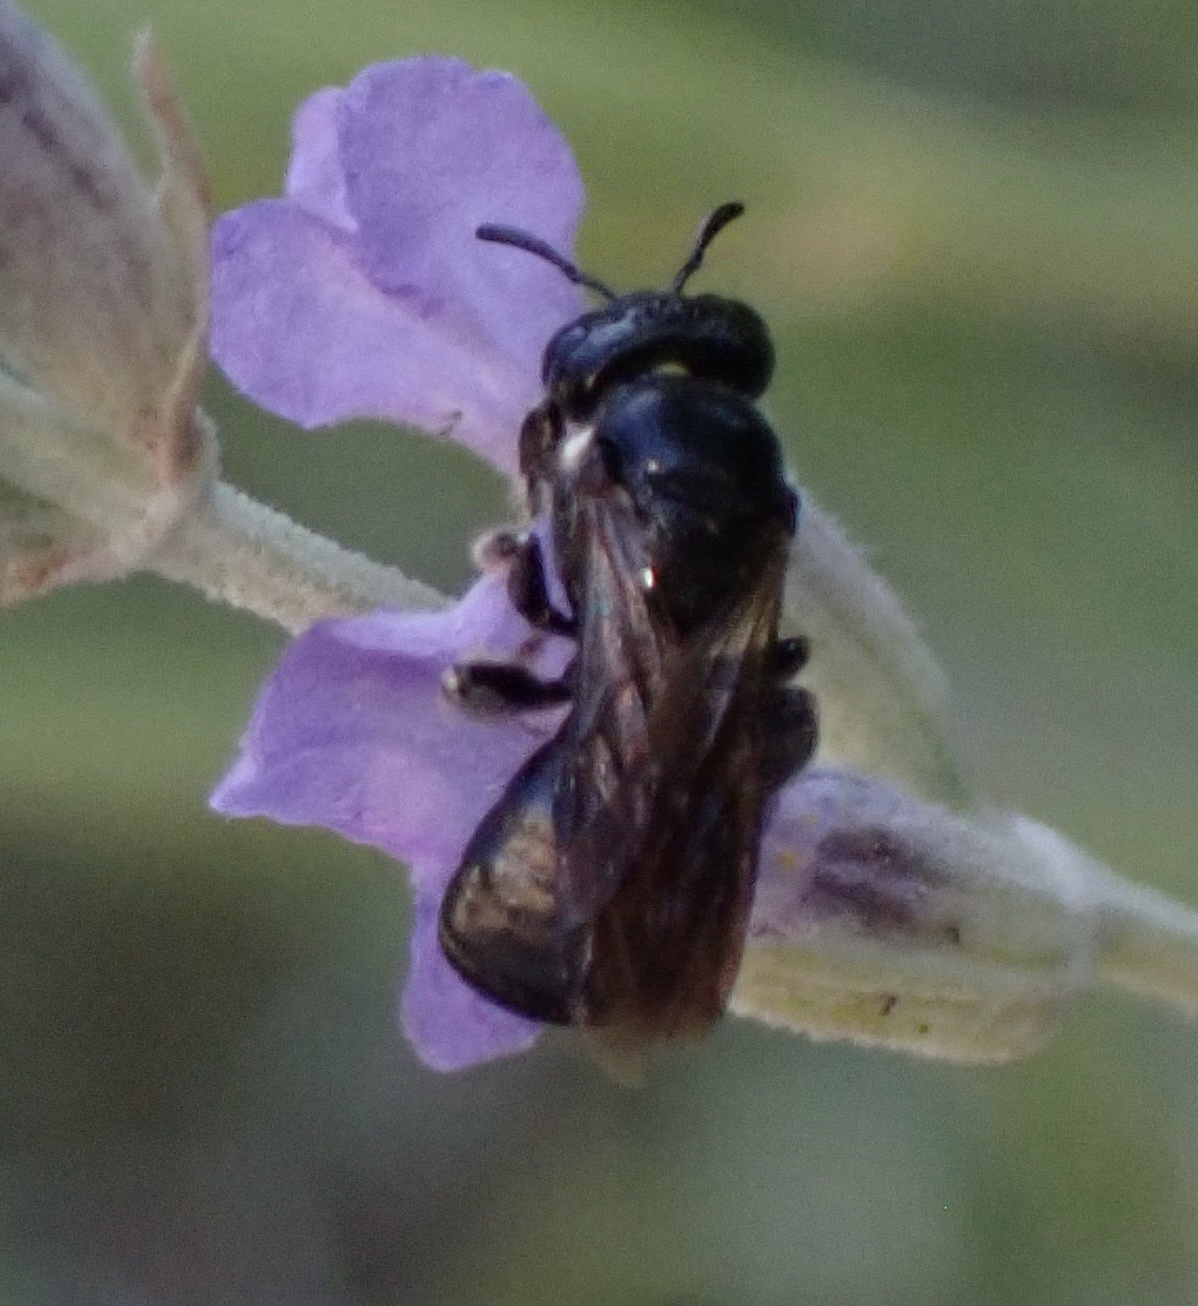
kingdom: Animalia
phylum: Arthropoda
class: Insecta
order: Hymenoptera
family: Apidae
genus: Ceratina
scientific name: Ceratina cucurbitina
